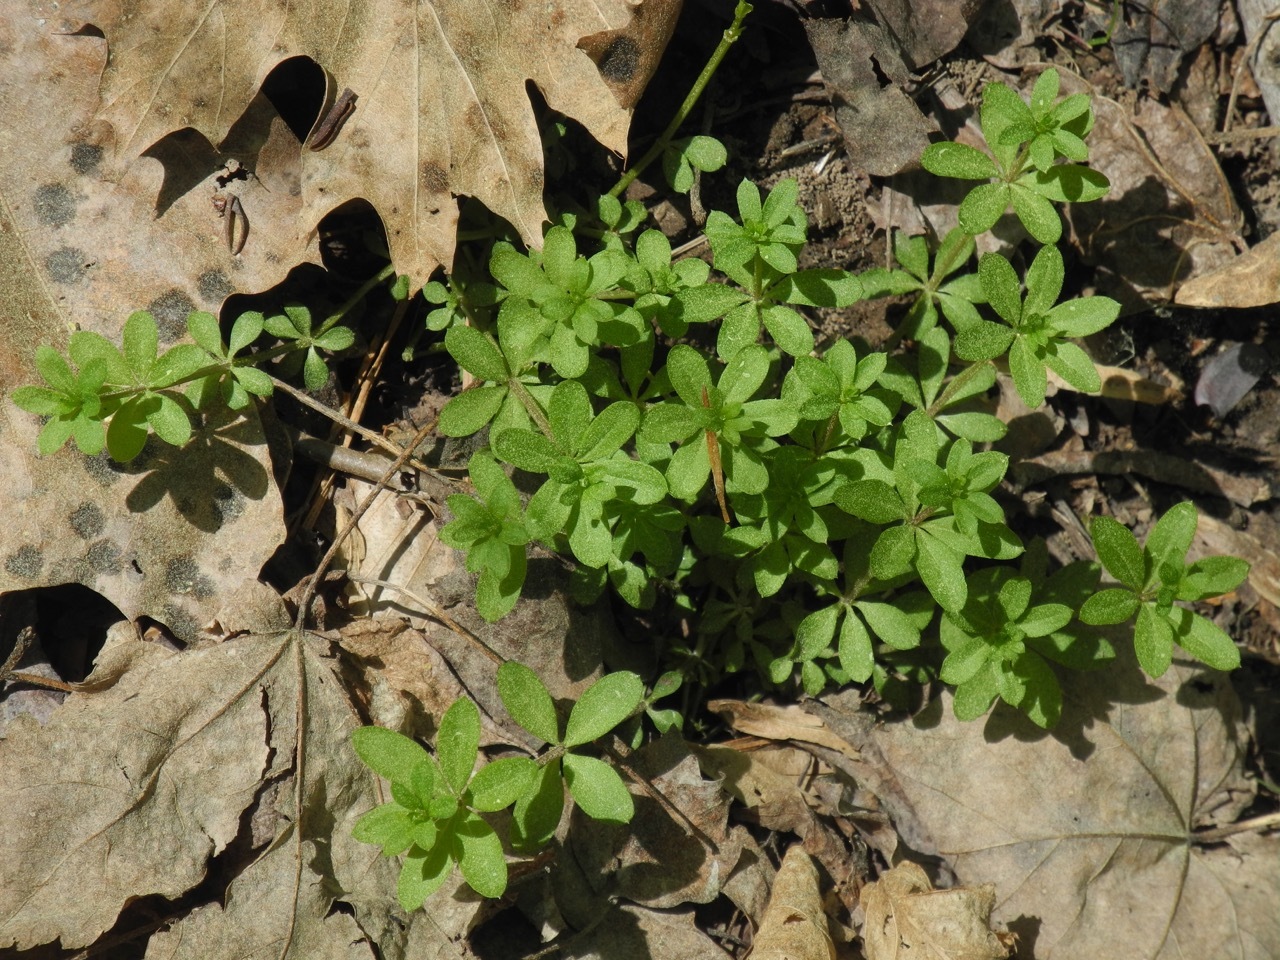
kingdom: Plantae
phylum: Tracheophyta
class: Magnoliopsida
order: Gentianales
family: Rubiaceae
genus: Galium
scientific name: Galium triflorum
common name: Fragrant bedstraw
